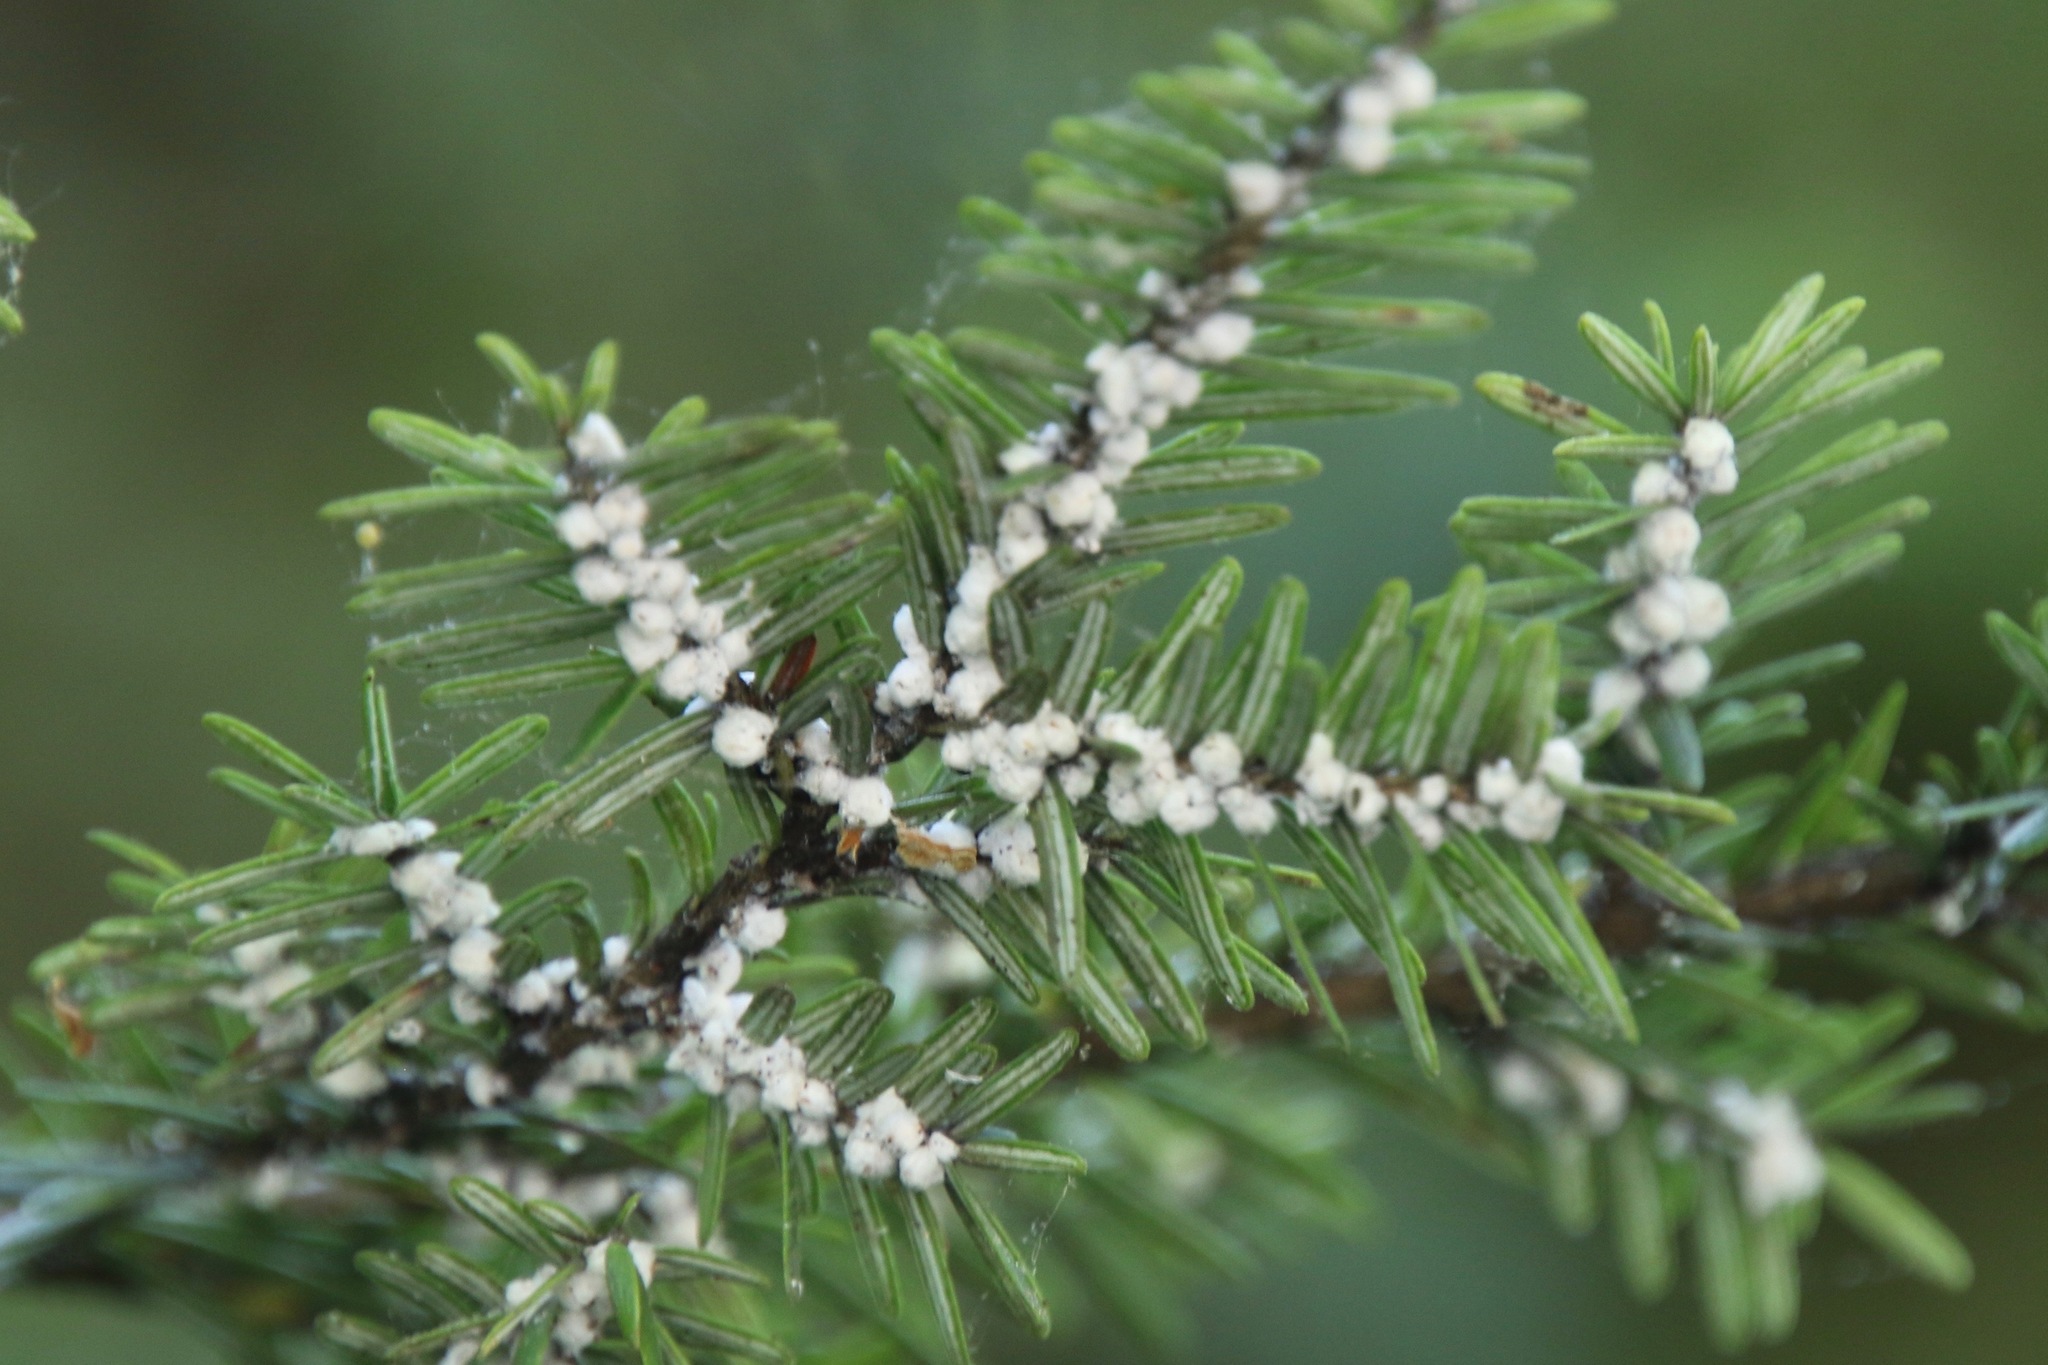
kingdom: Animalia
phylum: Arthropoda
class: Insecta
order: Hemiptera
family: Adelgidae
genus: Adelges
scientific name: Adelges tsugae
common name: Hemlock woolly adelgid
